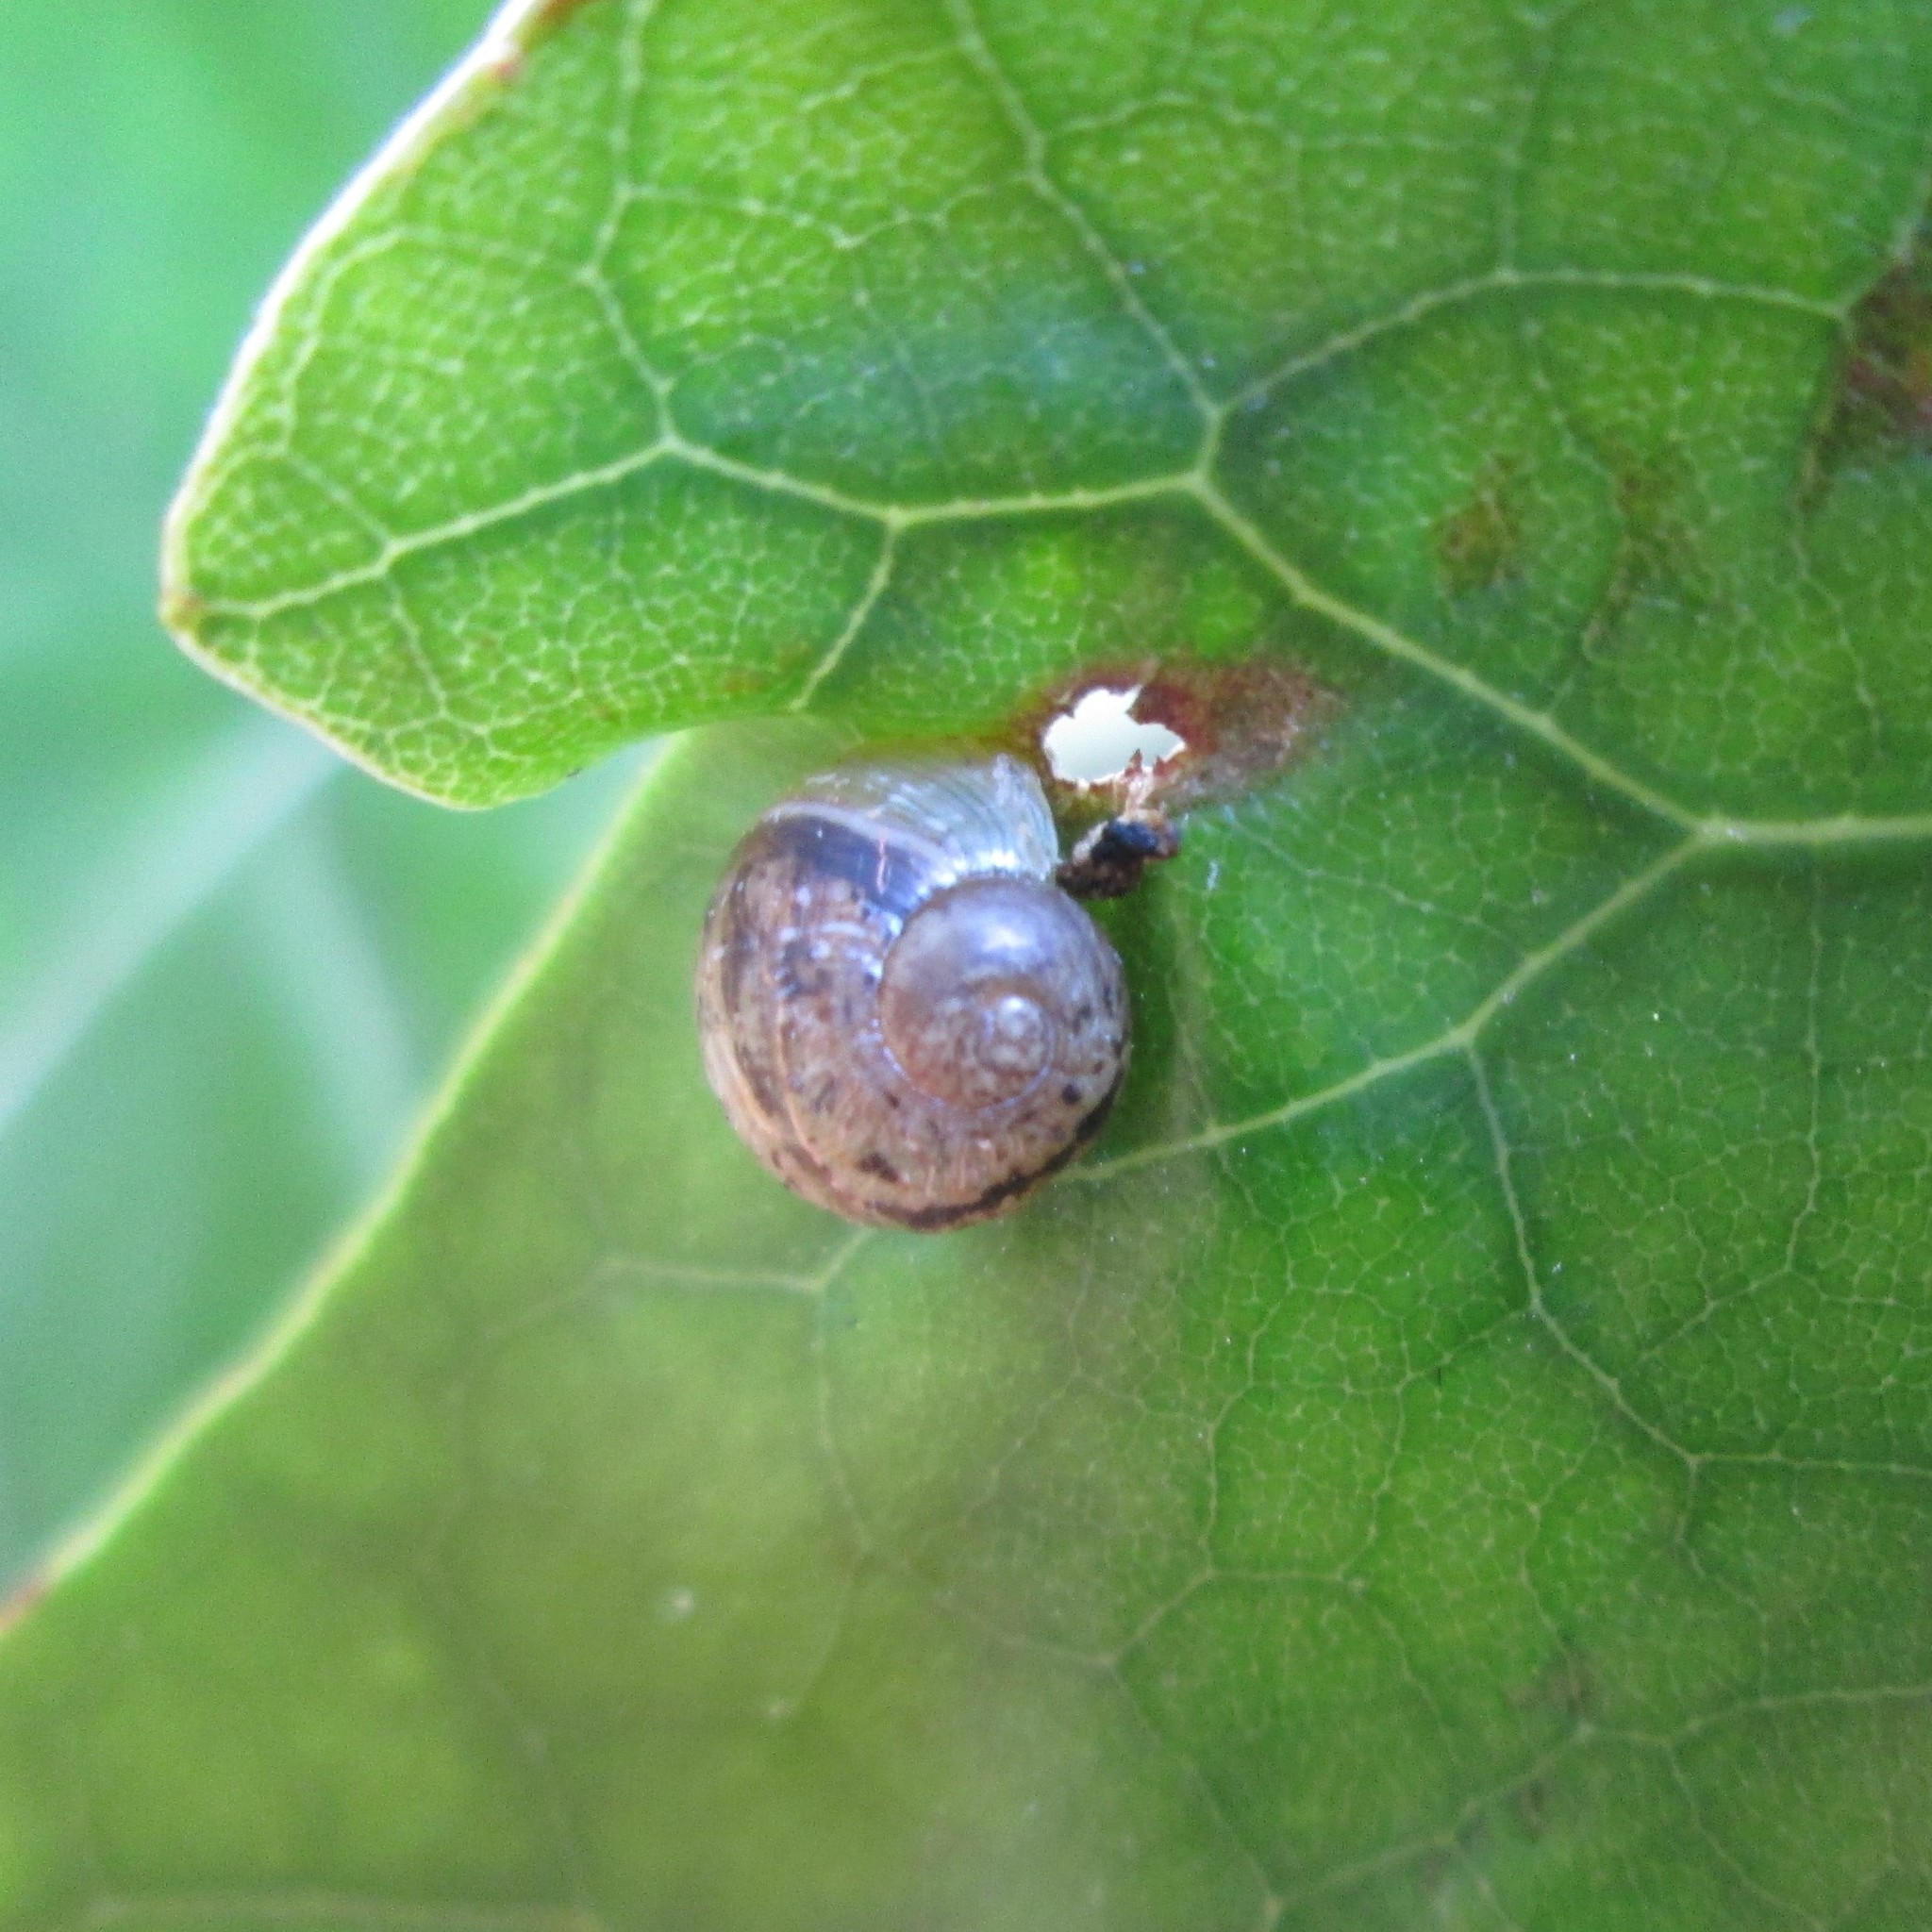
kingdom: Animalia
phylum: Mollusca
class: Gastropoda
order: Stylommatophora
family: Helicidae
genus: Cornu
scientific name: Cornu aspersum
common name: Brown garden snail
